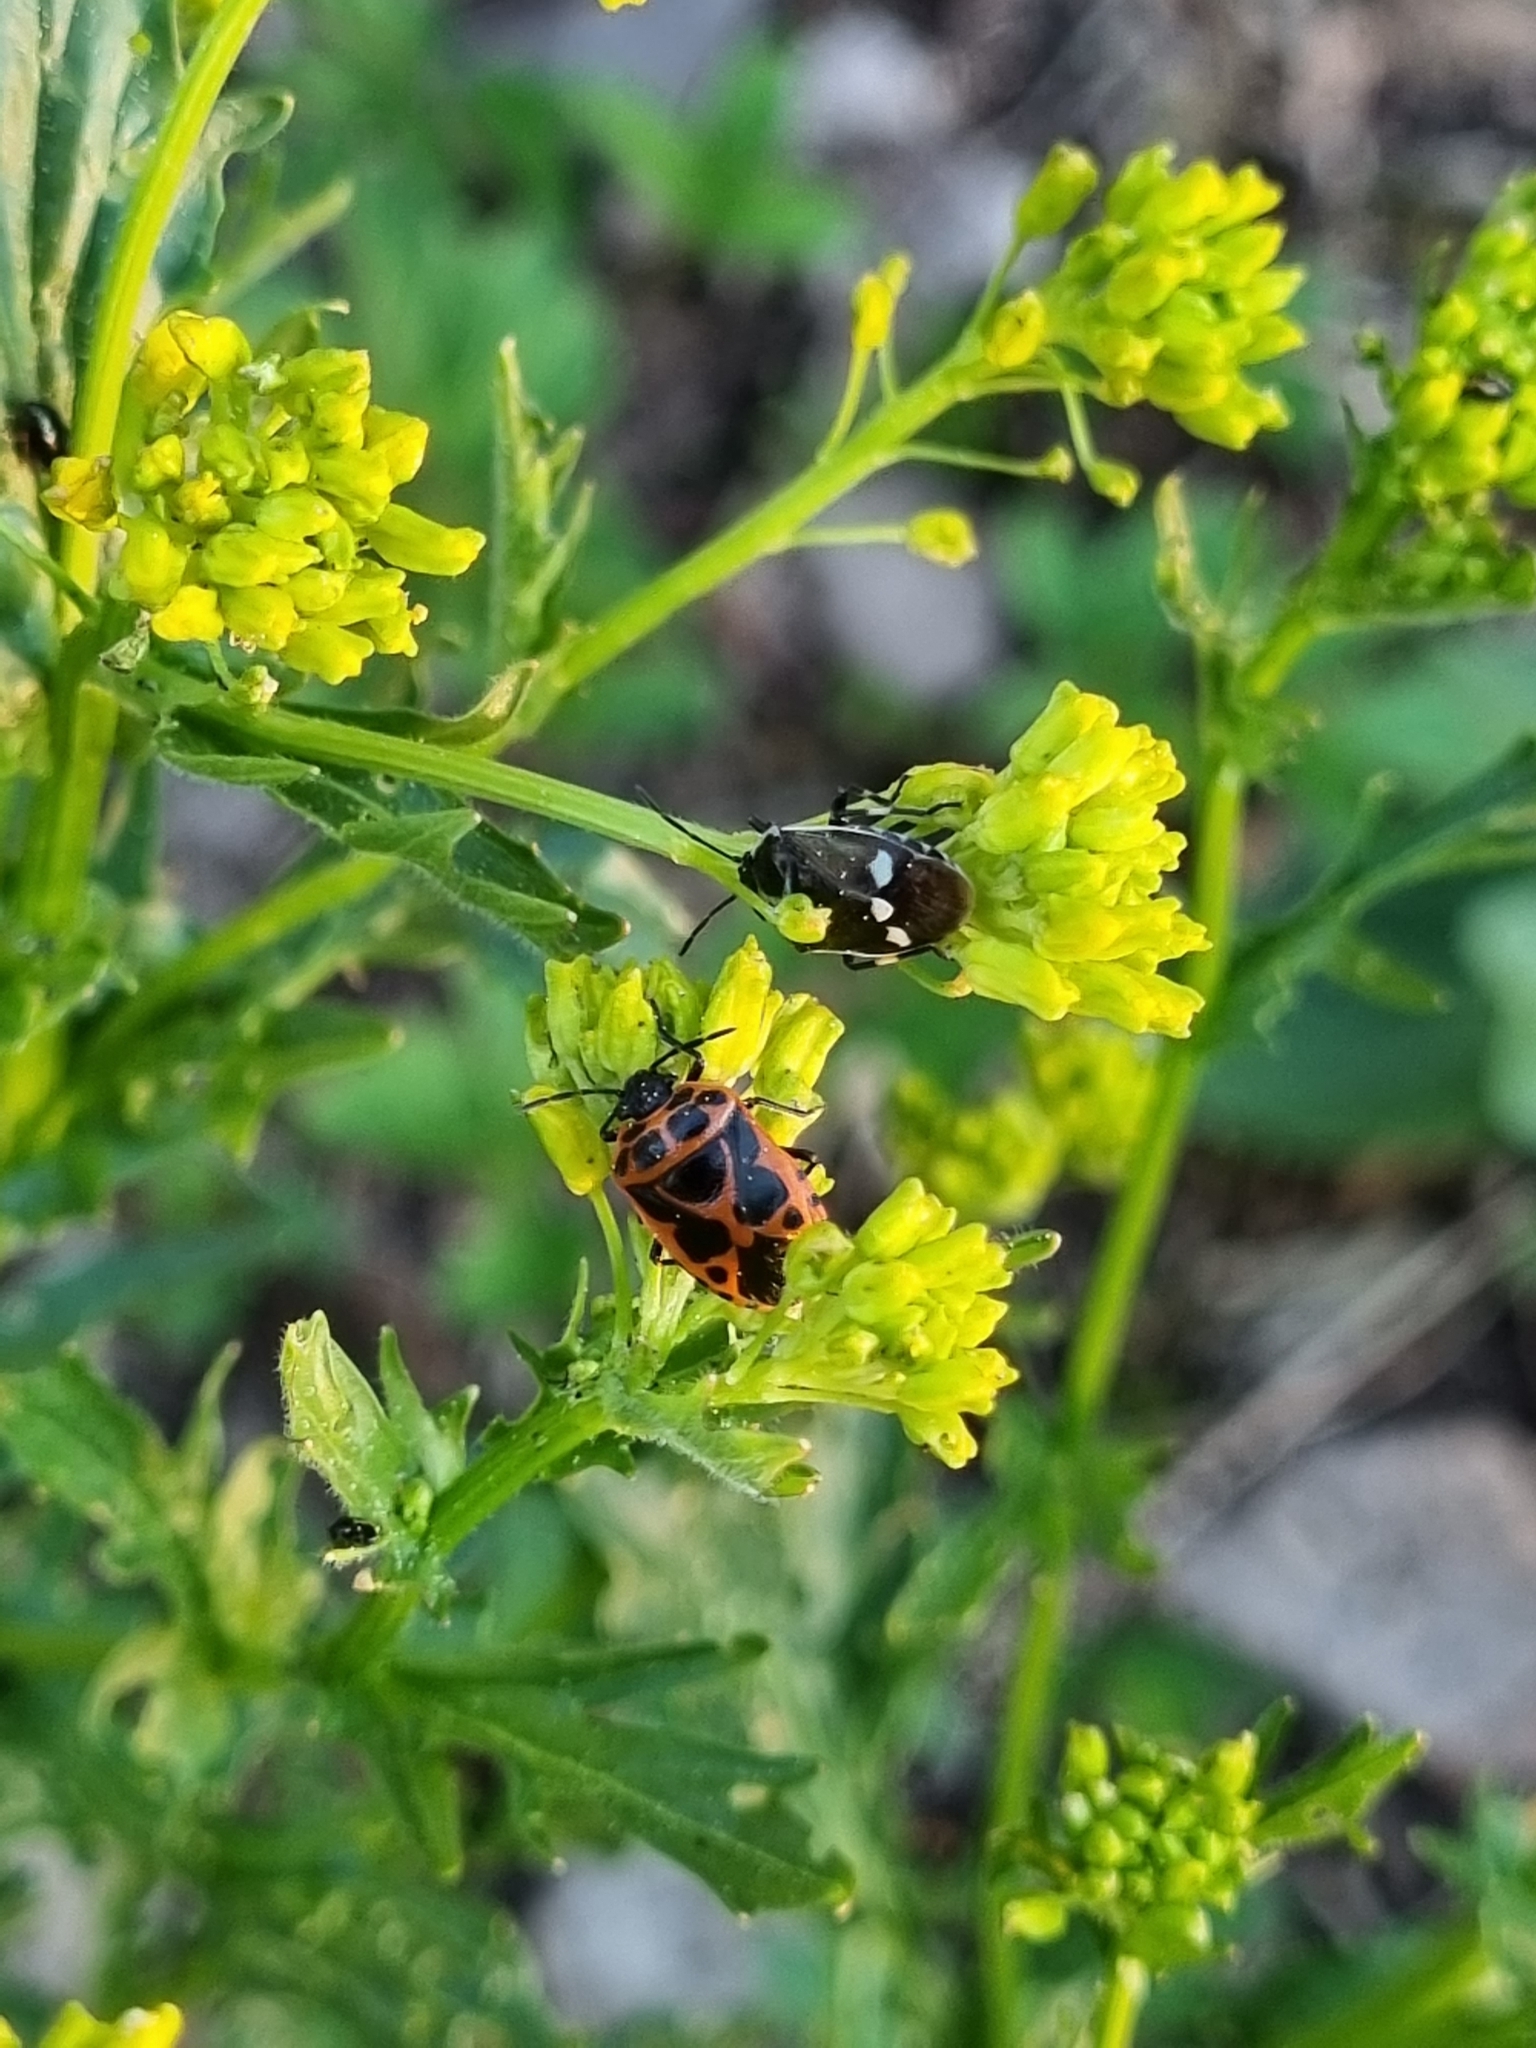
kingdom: Animalia
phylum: Arthropoda
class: Insecta
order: Hemiptera
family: Pentatomidae
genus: Eurydema
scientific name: Eurydema dominulus
